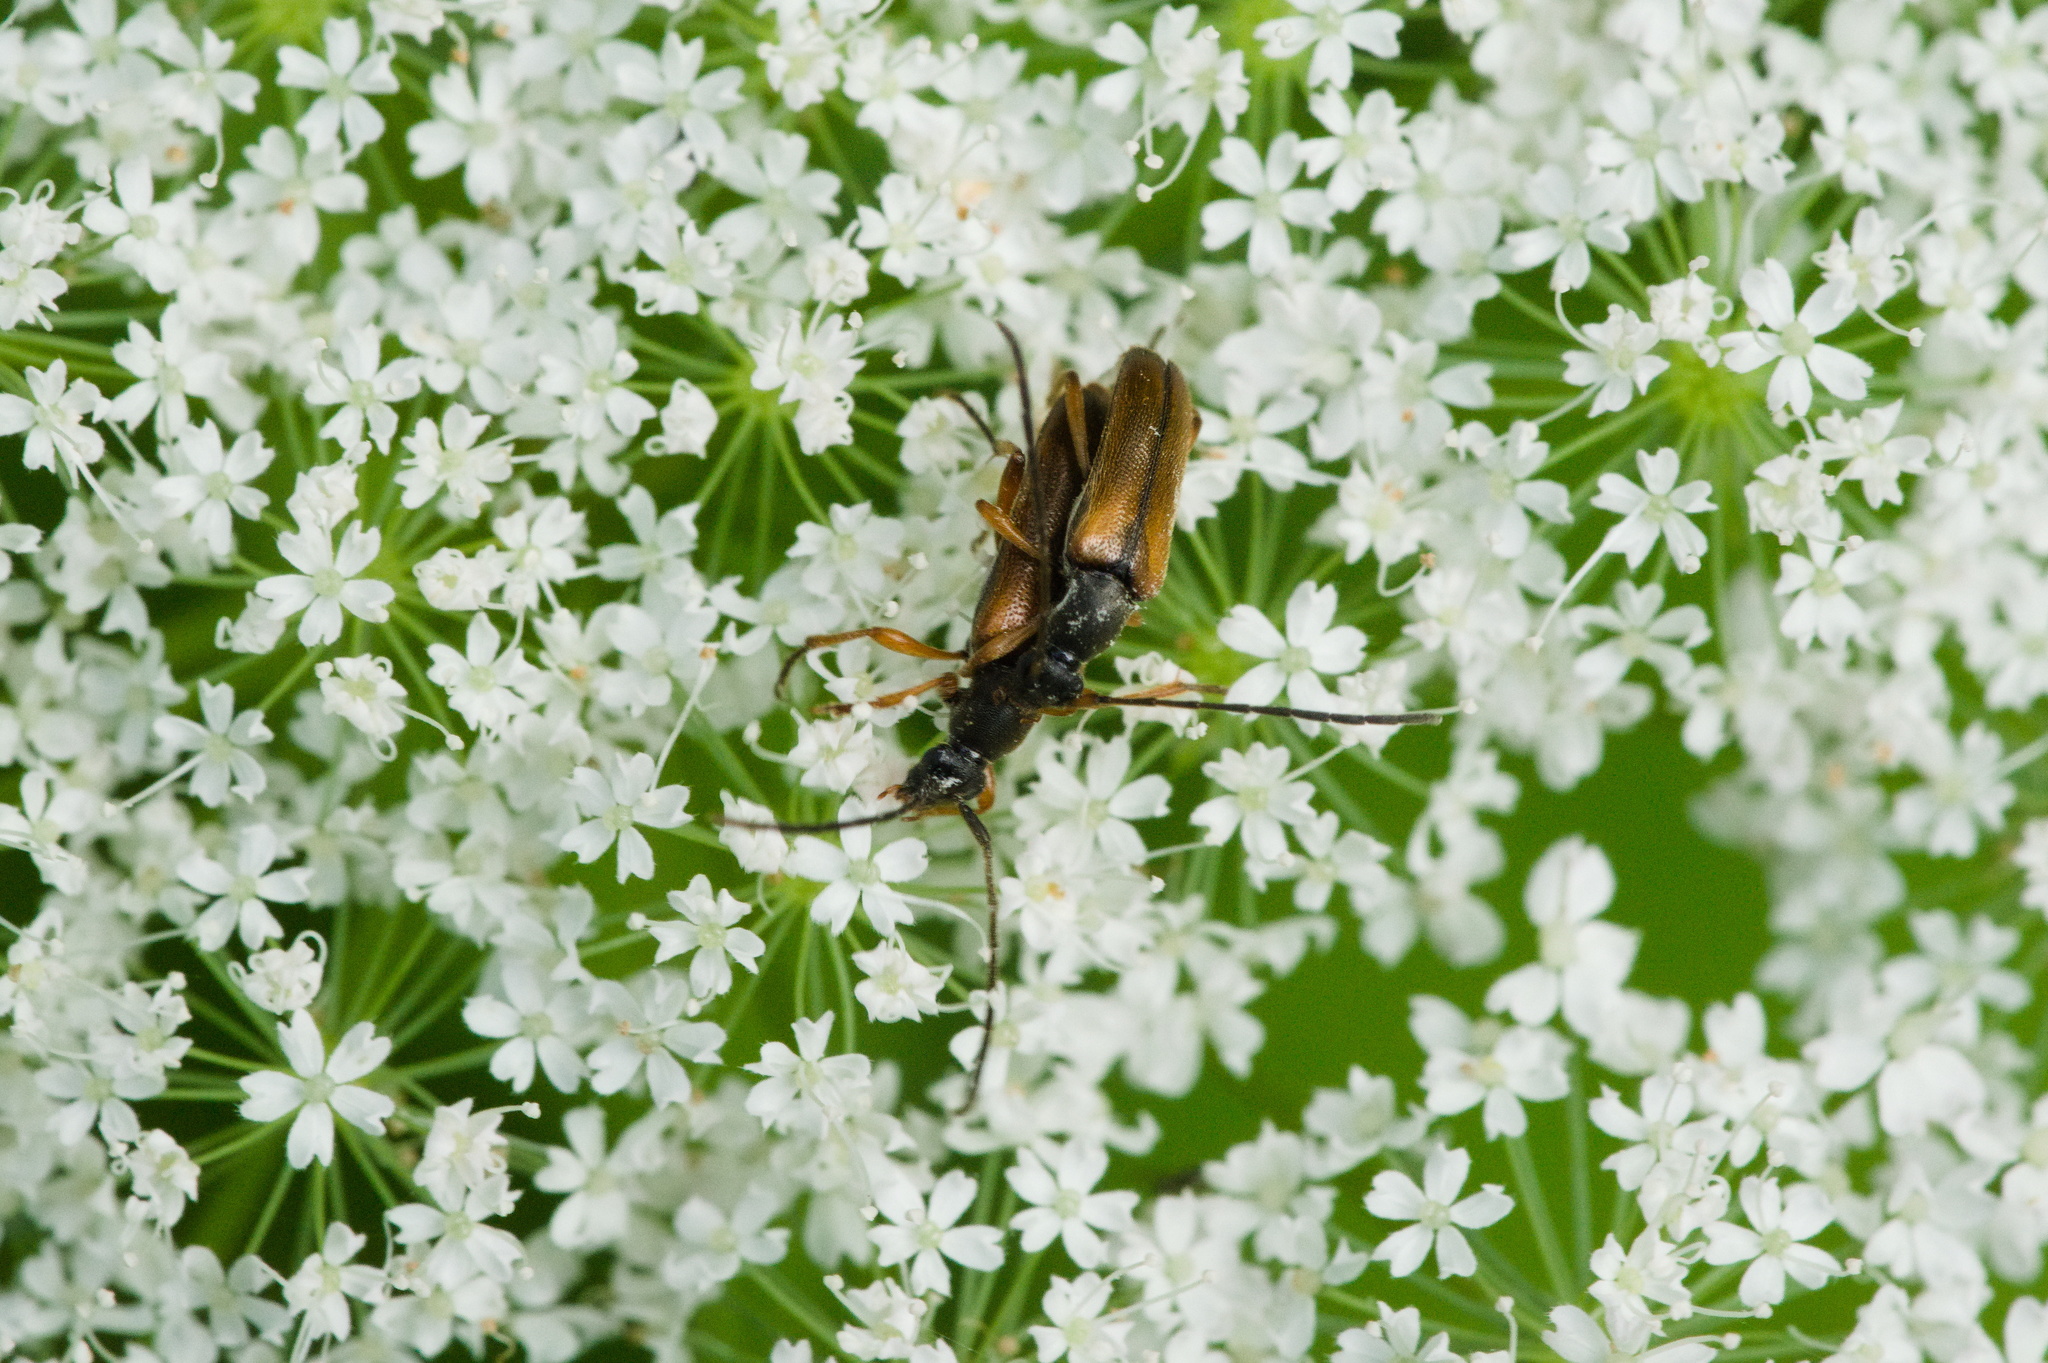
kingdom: Animalia
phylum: Arthropoda
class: Insecta
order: Coleoptera
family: Cerambycidae
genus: Alosterna
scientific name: Alosterna tabacicolor
